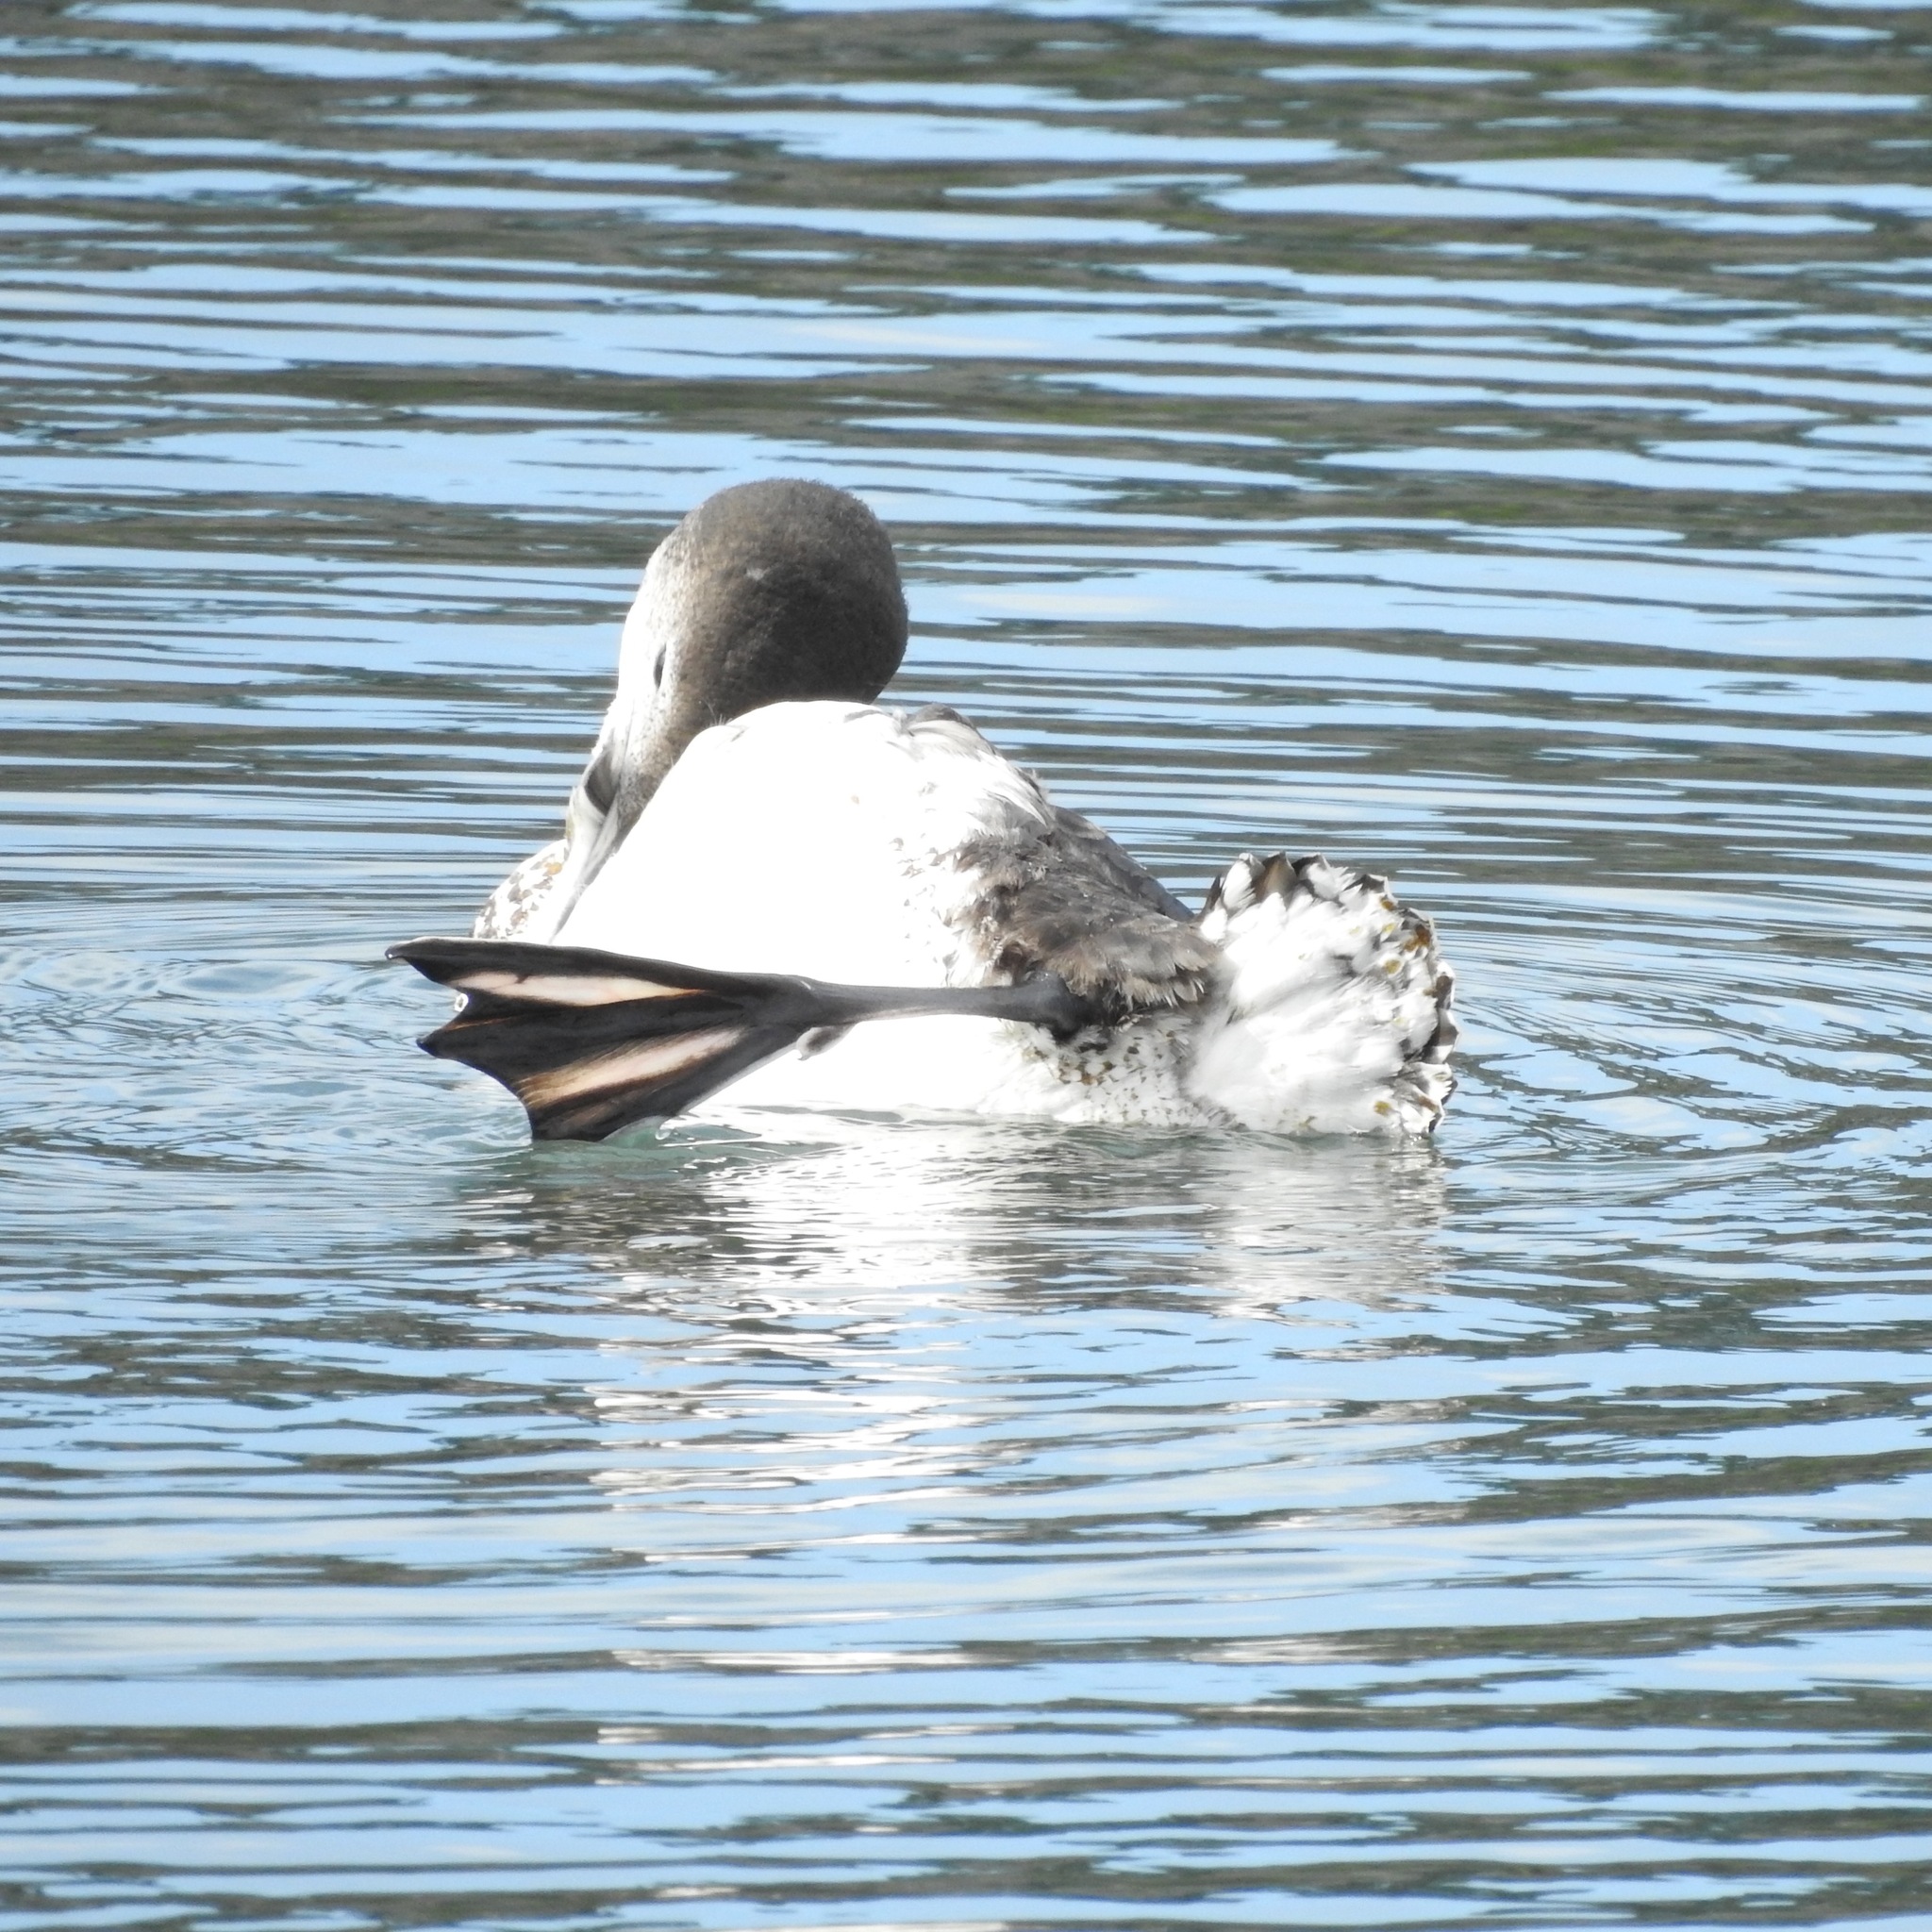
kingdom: Animalia
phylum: Chordata
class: Aves
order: Gaviiformes
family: Gaviidae
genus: Gavia
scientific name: Gavia immer
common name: Common loon
